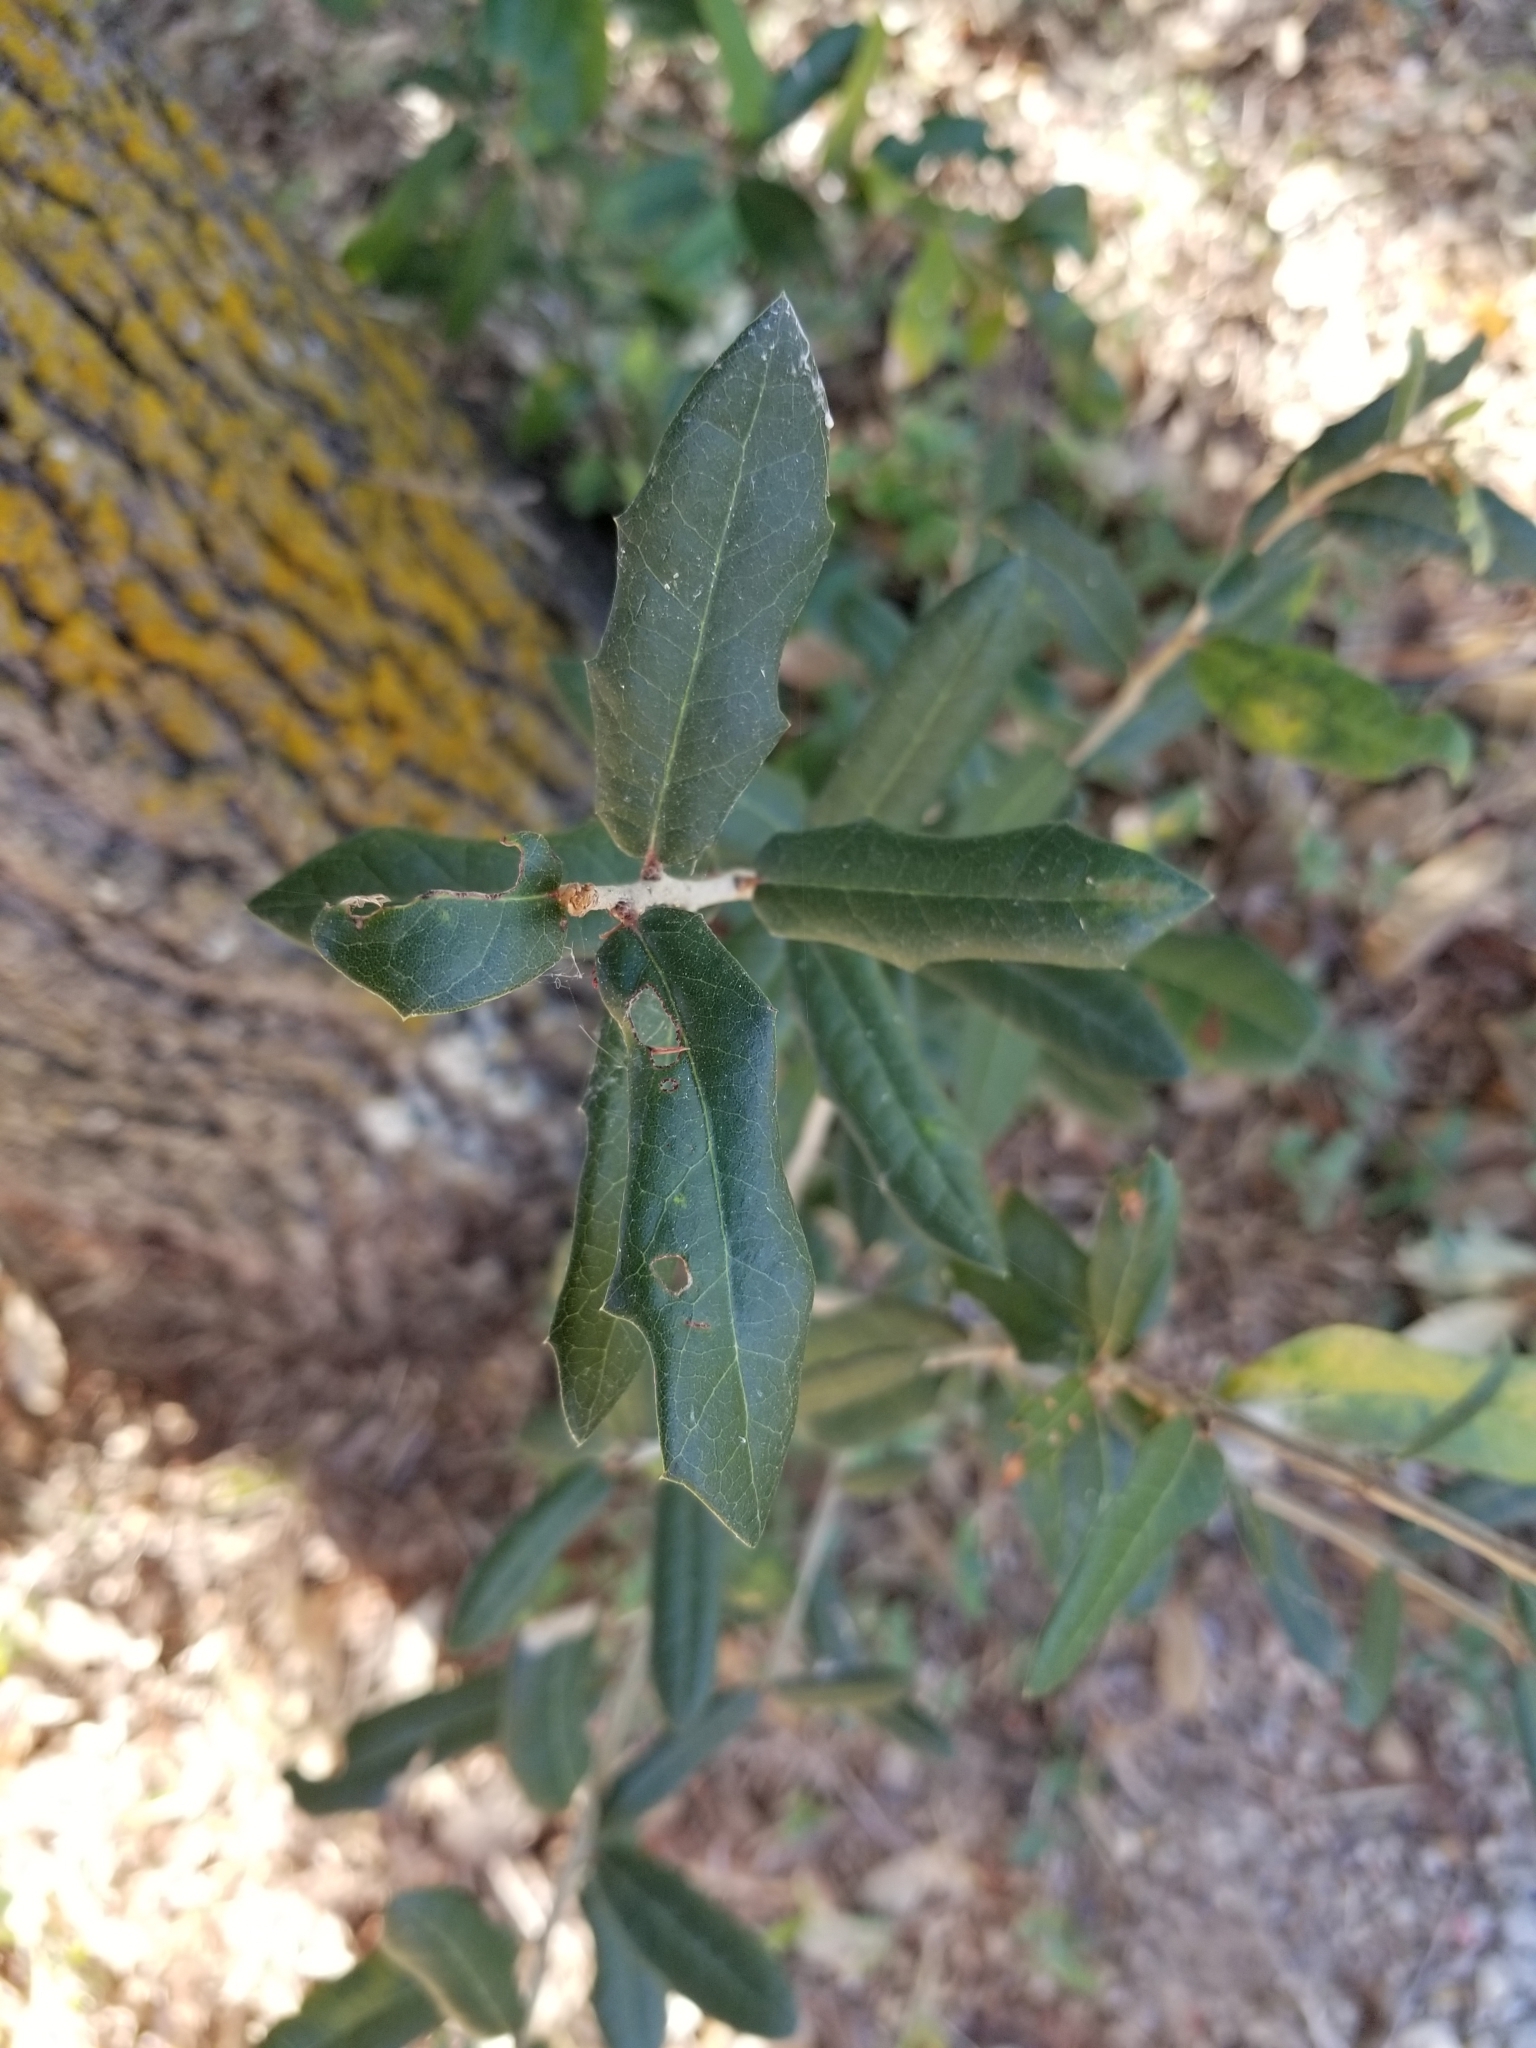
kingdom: Plantae
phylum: Tracheophyta
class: Magnoliopsida
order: Fagales
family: Fagaceae
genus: Quercus
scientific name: Quercus virginiana
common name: Southern live oak
